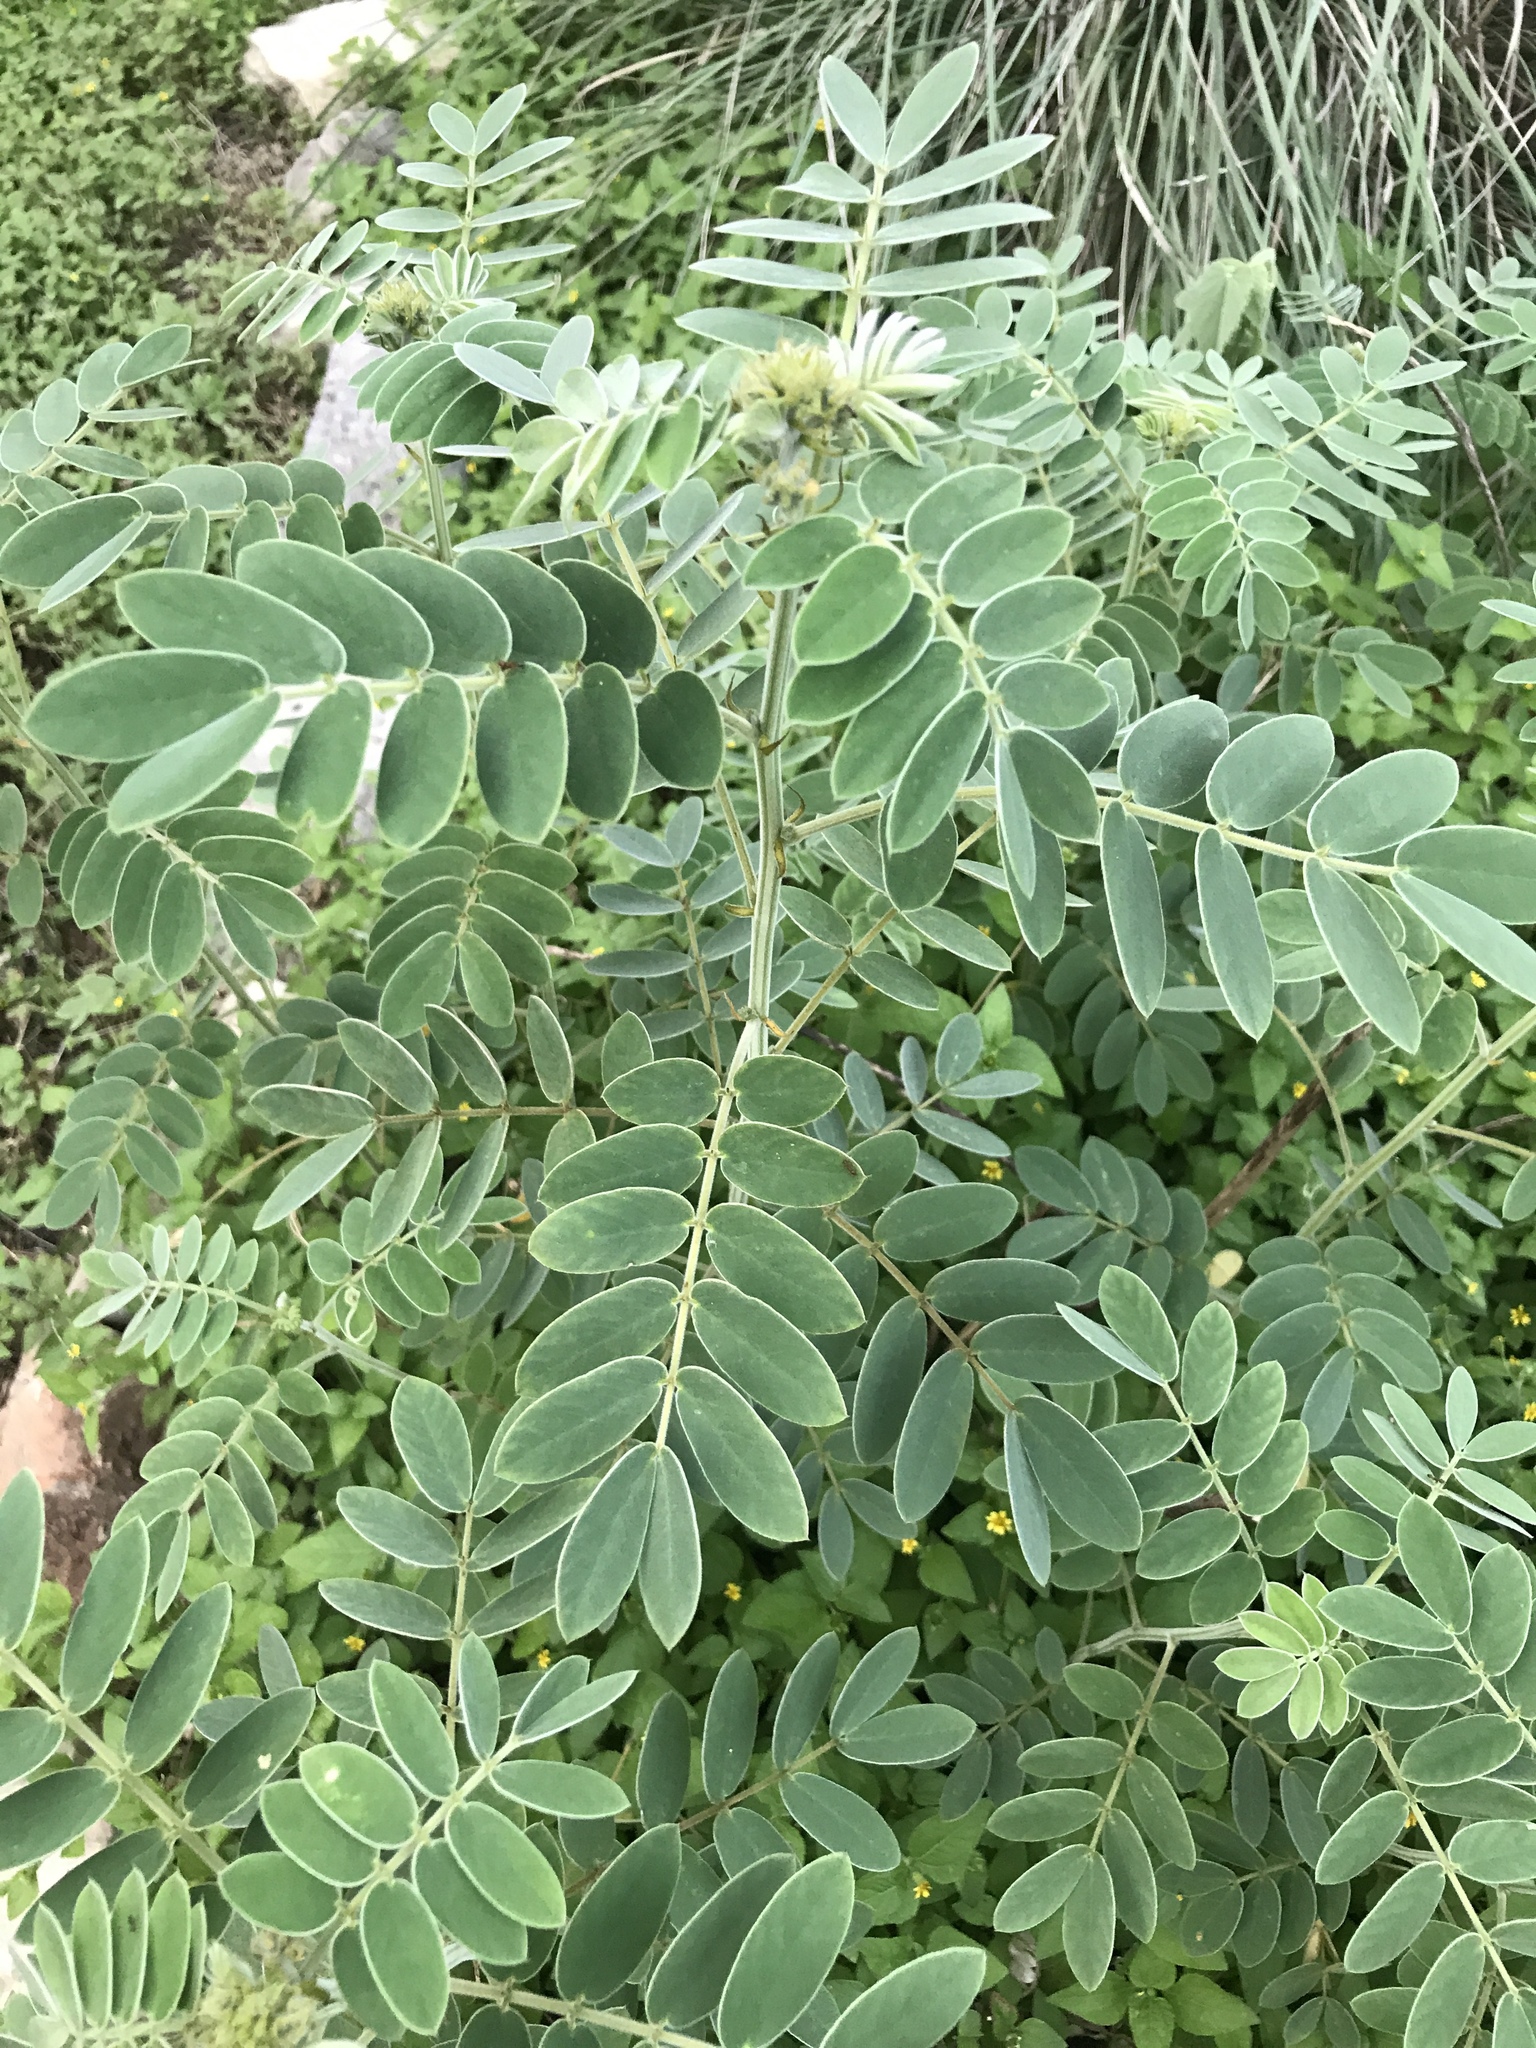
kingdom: Plantae
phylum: Tracheophyta
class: Magnoliopsida
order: Fabales
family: Fabaceae
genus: Senna
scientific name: Senna lindheimeriana
